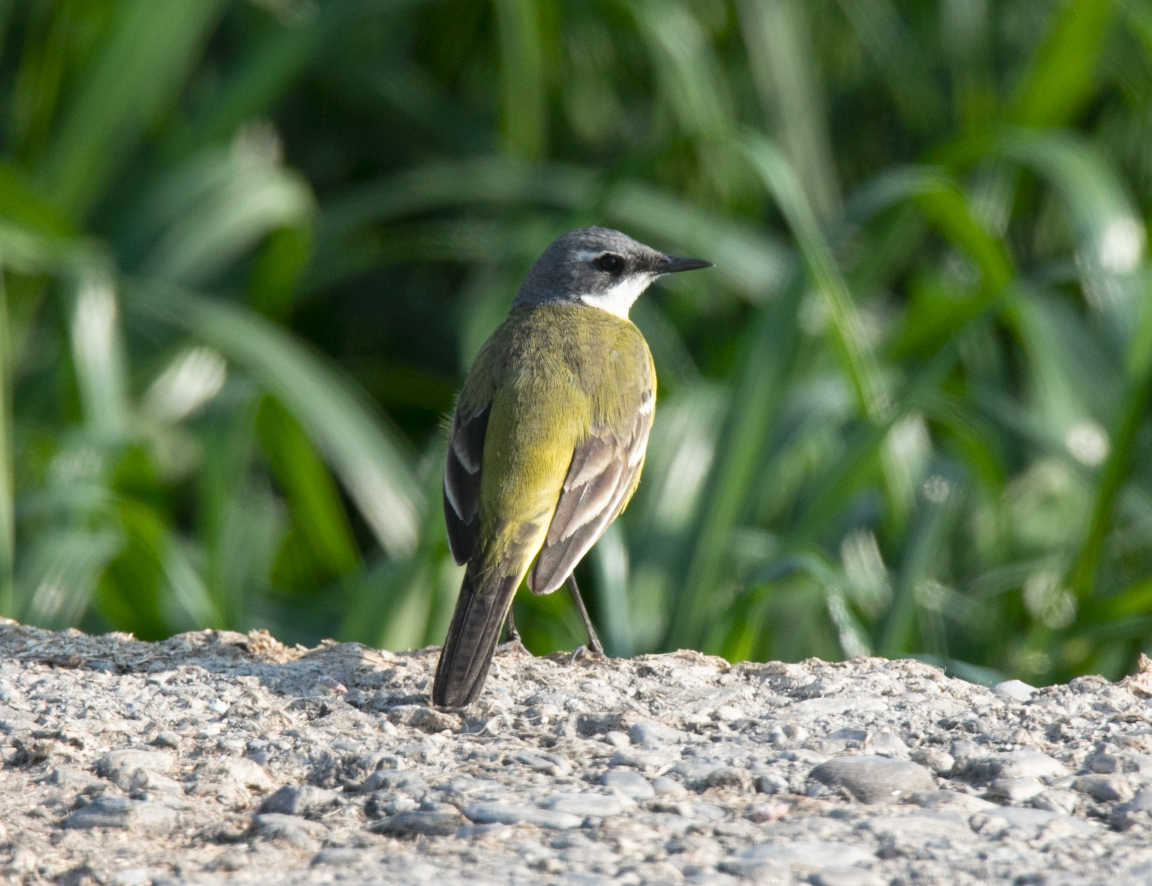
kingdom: Animalia
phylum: Chordata
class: Aves
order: Passeriformes
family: Motacillidae
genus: Motacilla
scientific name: Motacilla flava
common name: Western yellow wagtail
